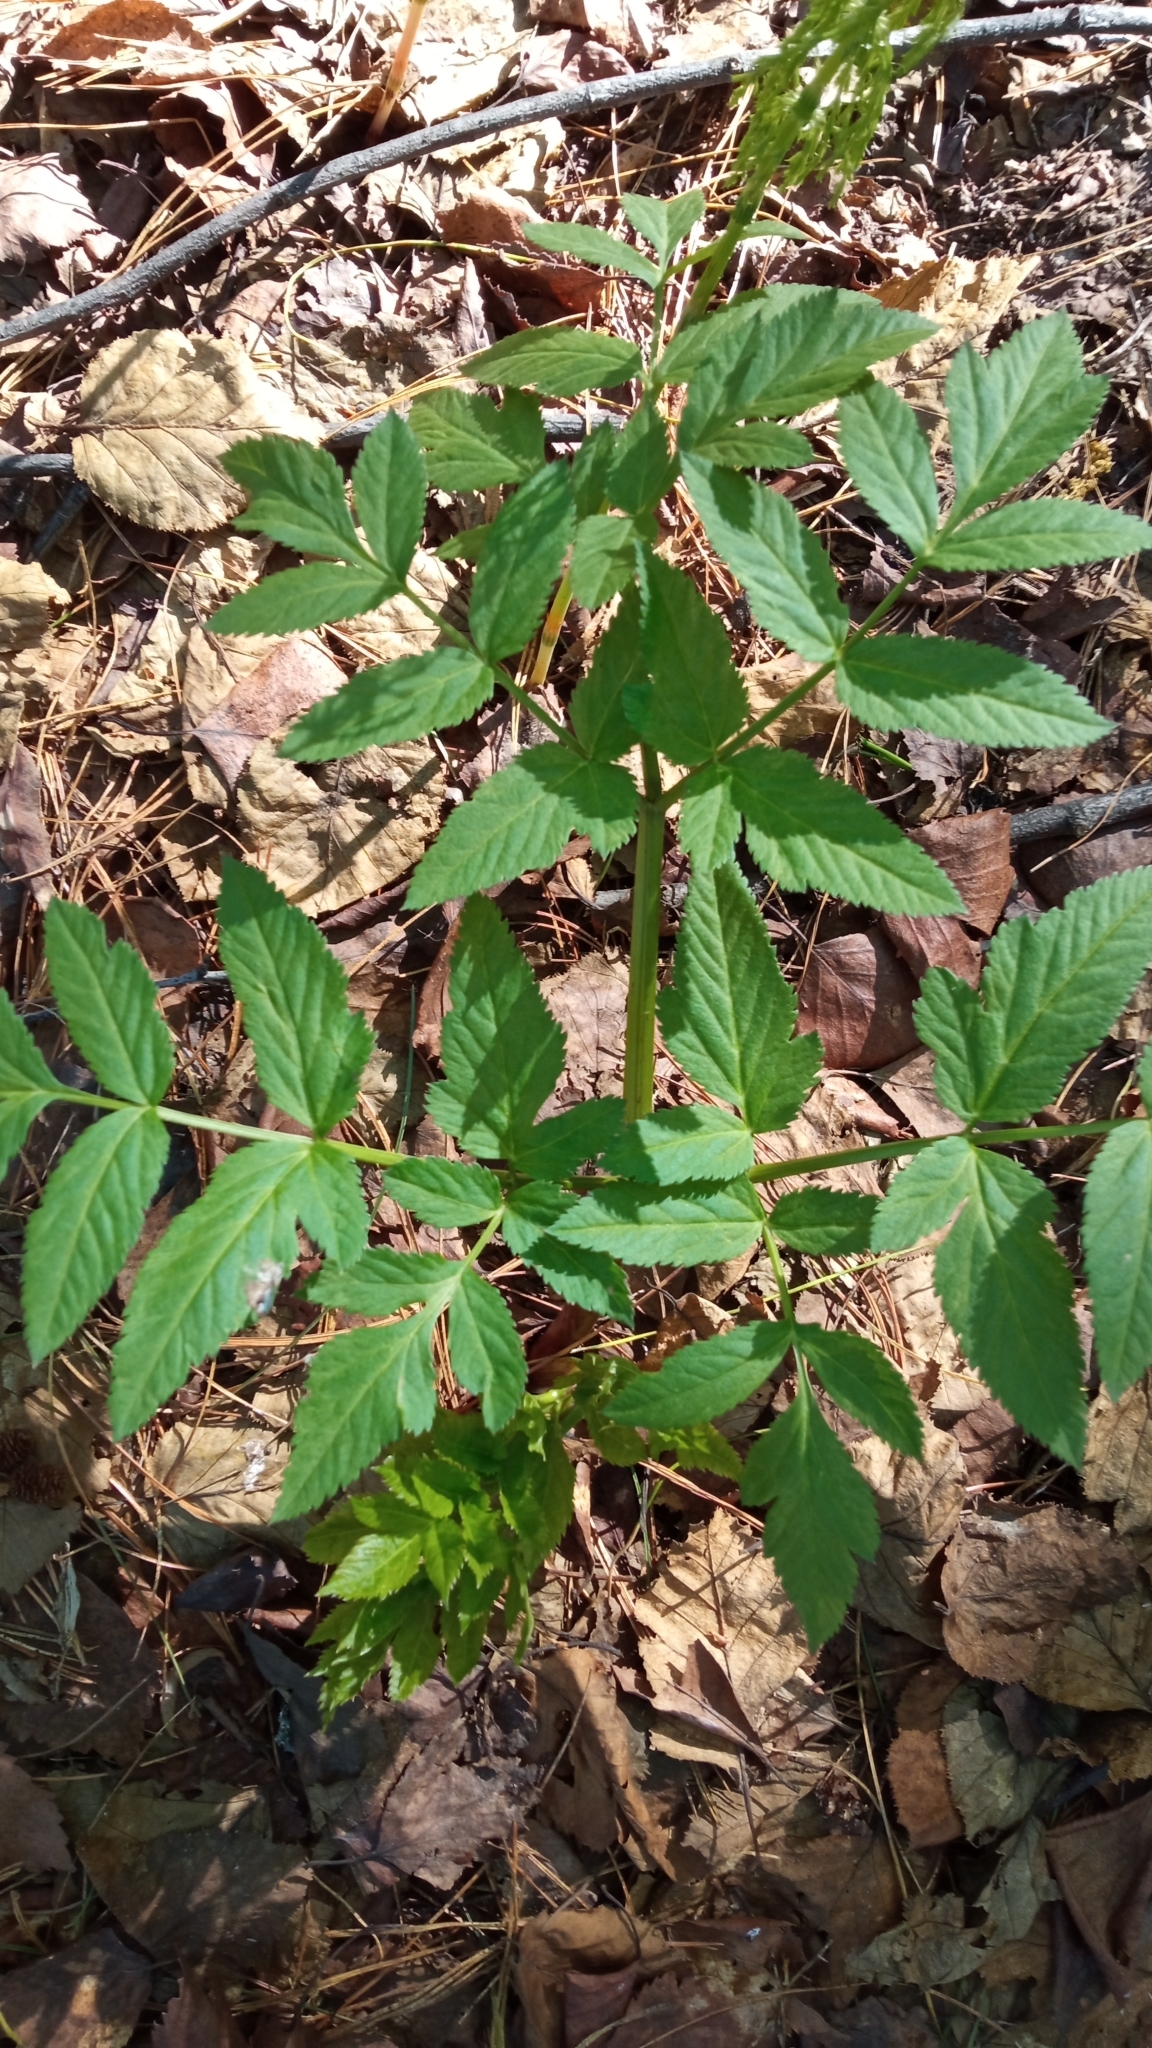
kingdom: Plantae
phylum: Tracheophyta
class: Magnoliopsida
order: Apiales
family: Apiaceae
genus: Angelica
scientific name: Angelica decurrens
